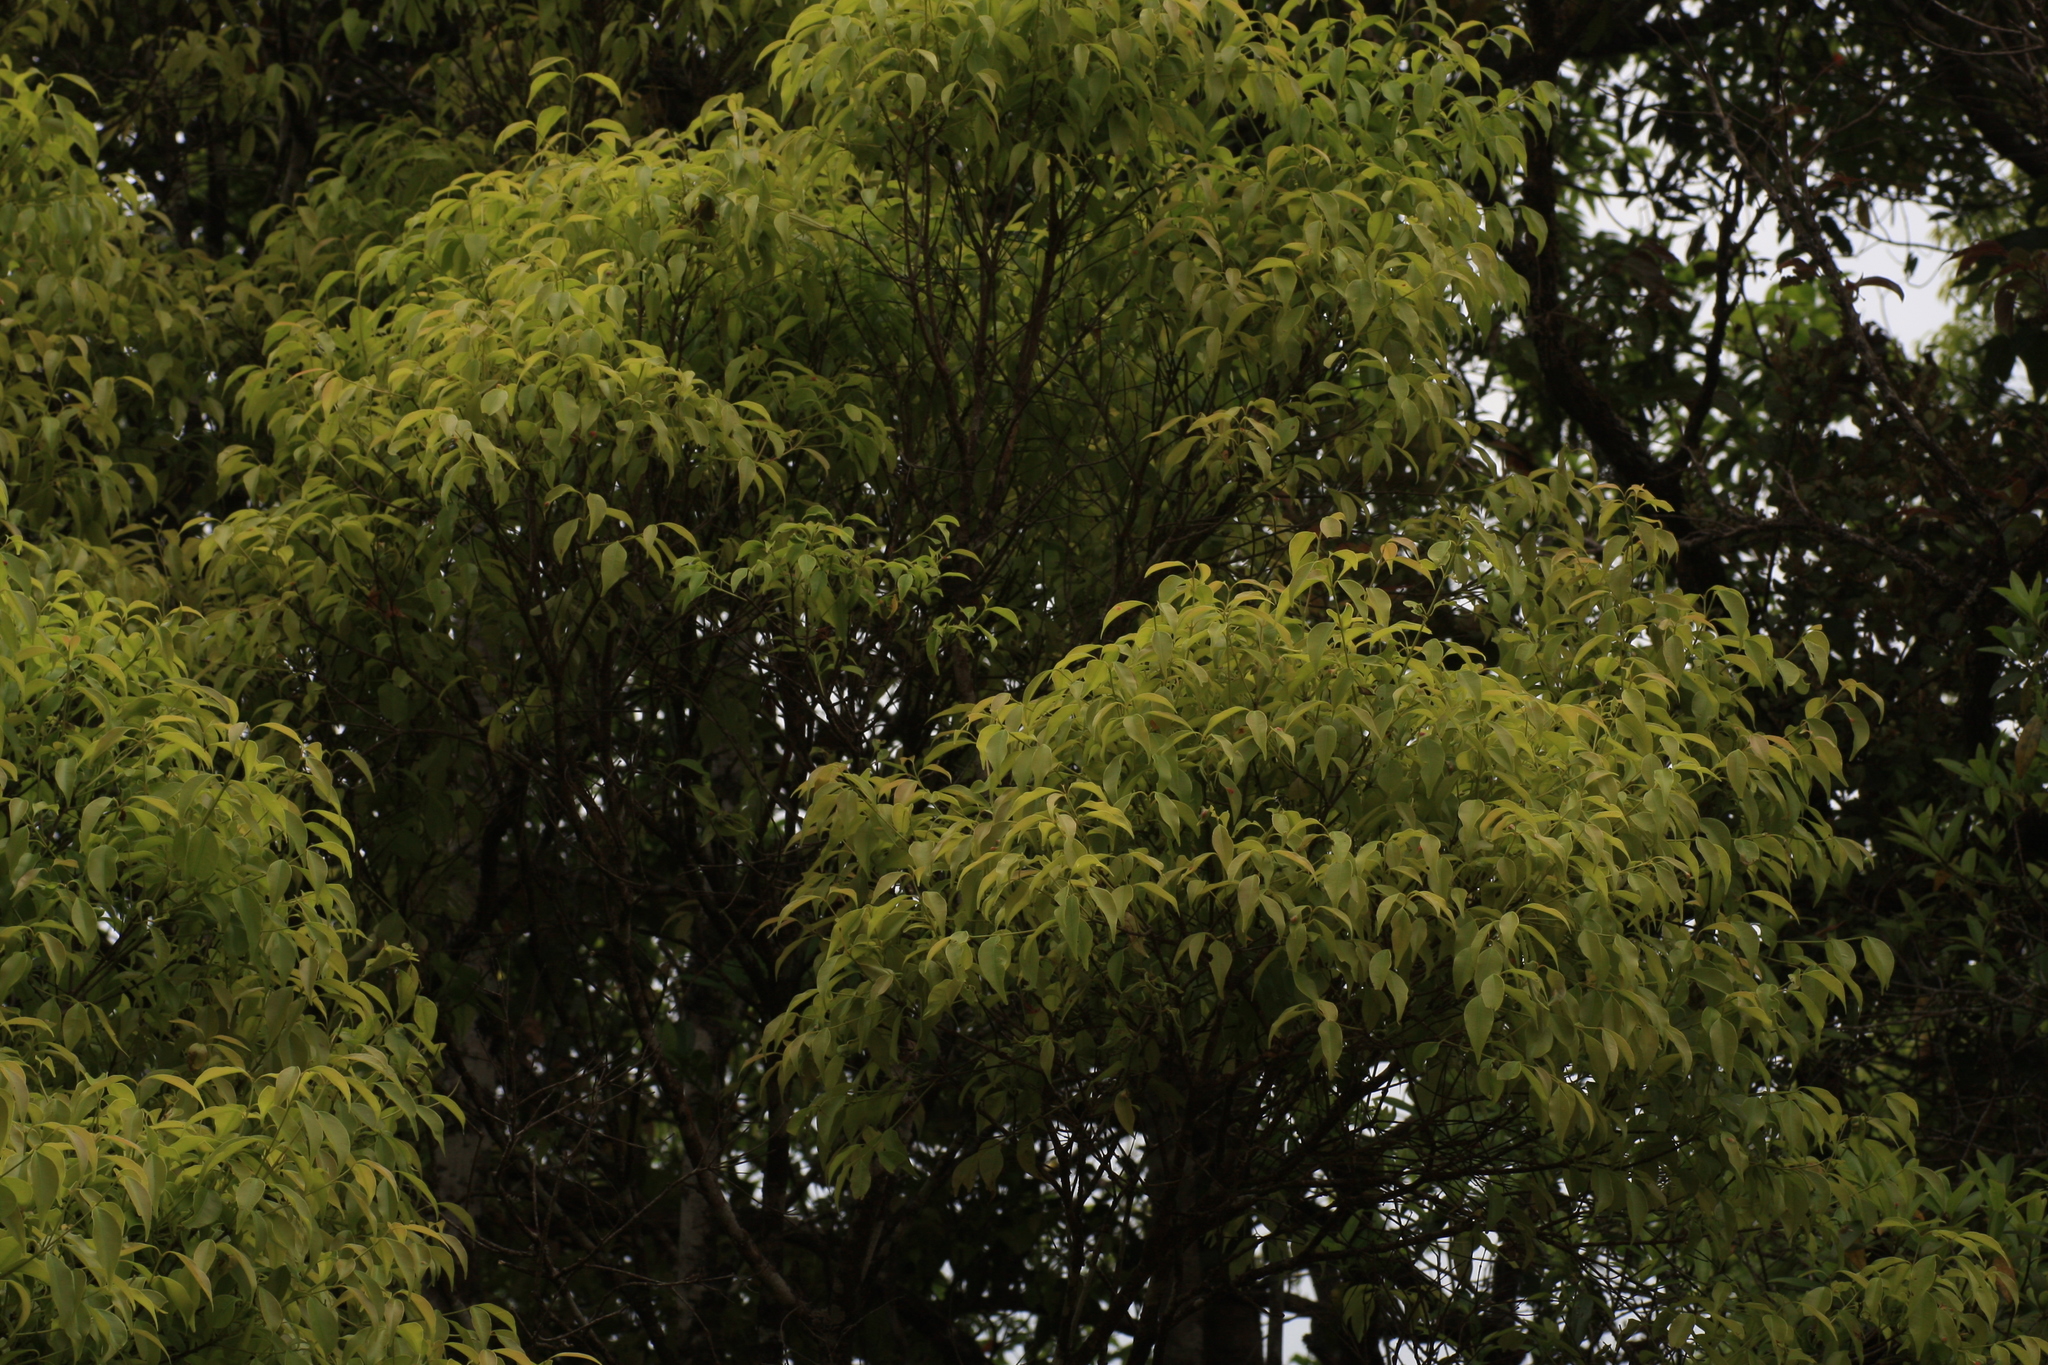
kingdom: Plantae
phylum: Tracheophyta
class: Magnoliopsida
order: Myrtales
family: Myrtaceae
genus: Syzygium
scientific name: Syzygium densiflorum
